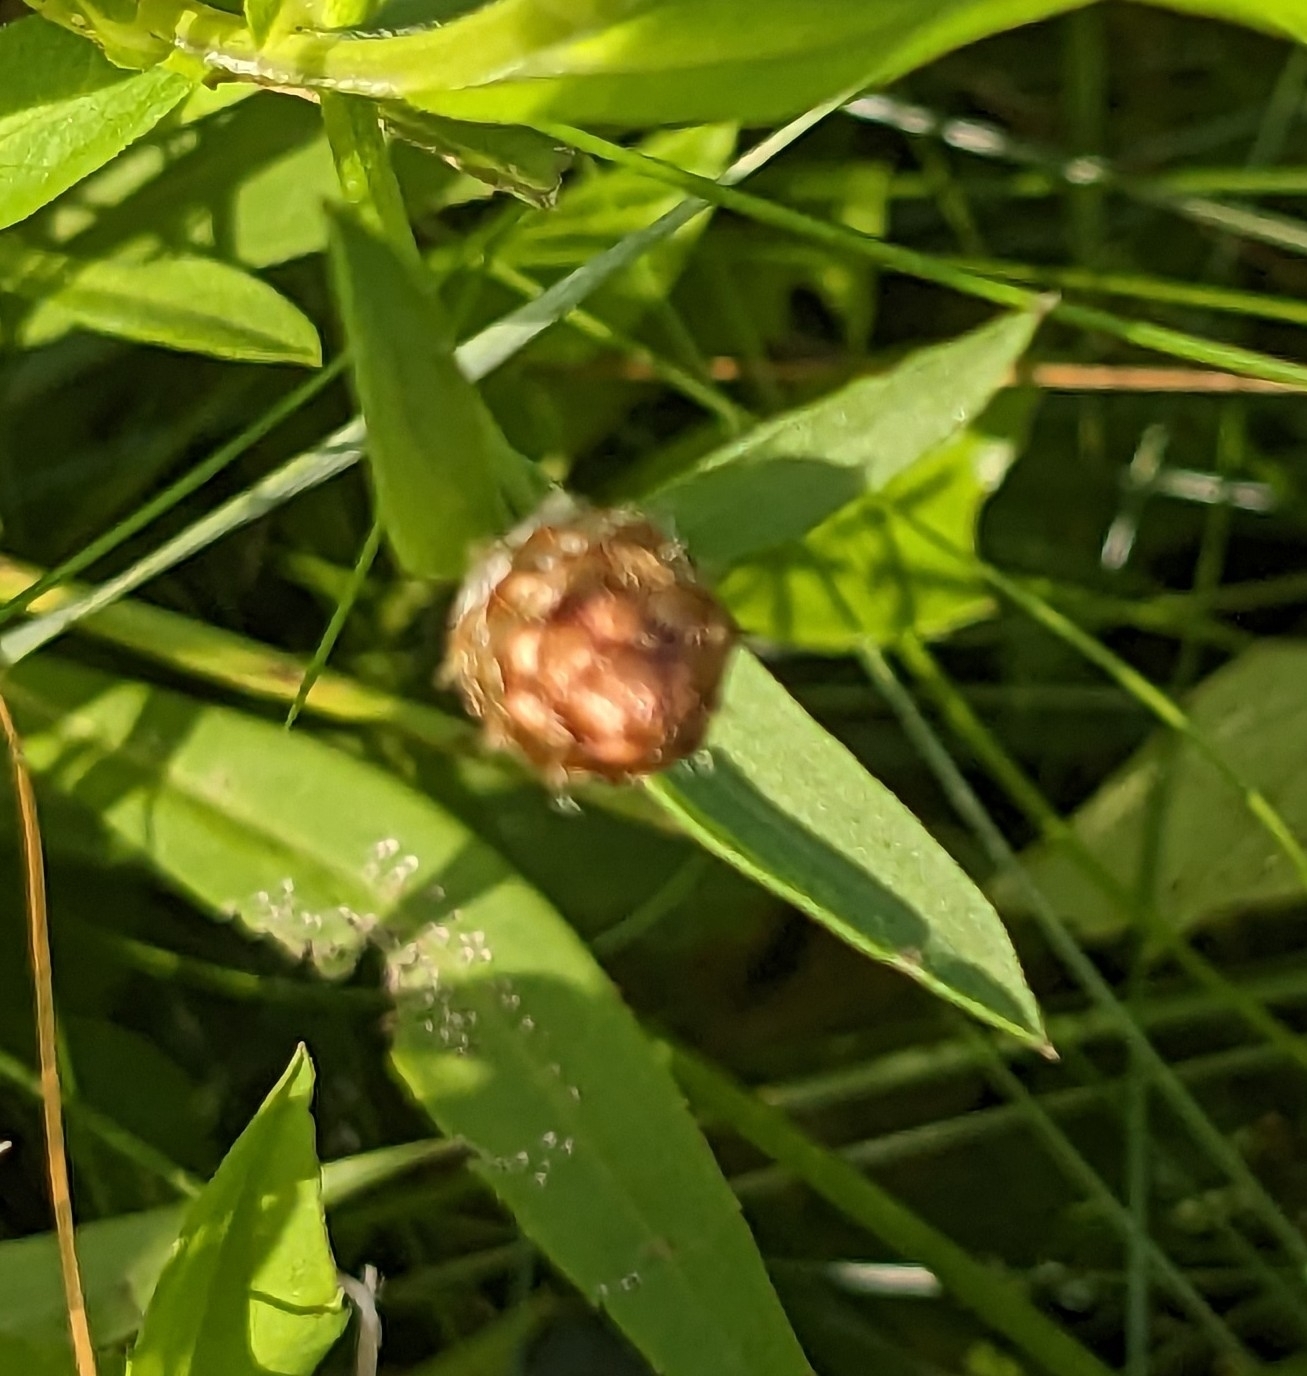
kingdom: Plantae
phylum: Tracheophyta
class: Magnoliopsida
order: Asterales
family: Asteraceae
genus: Centaurea
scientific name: Centaurea jacea
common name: Brown knapweed
